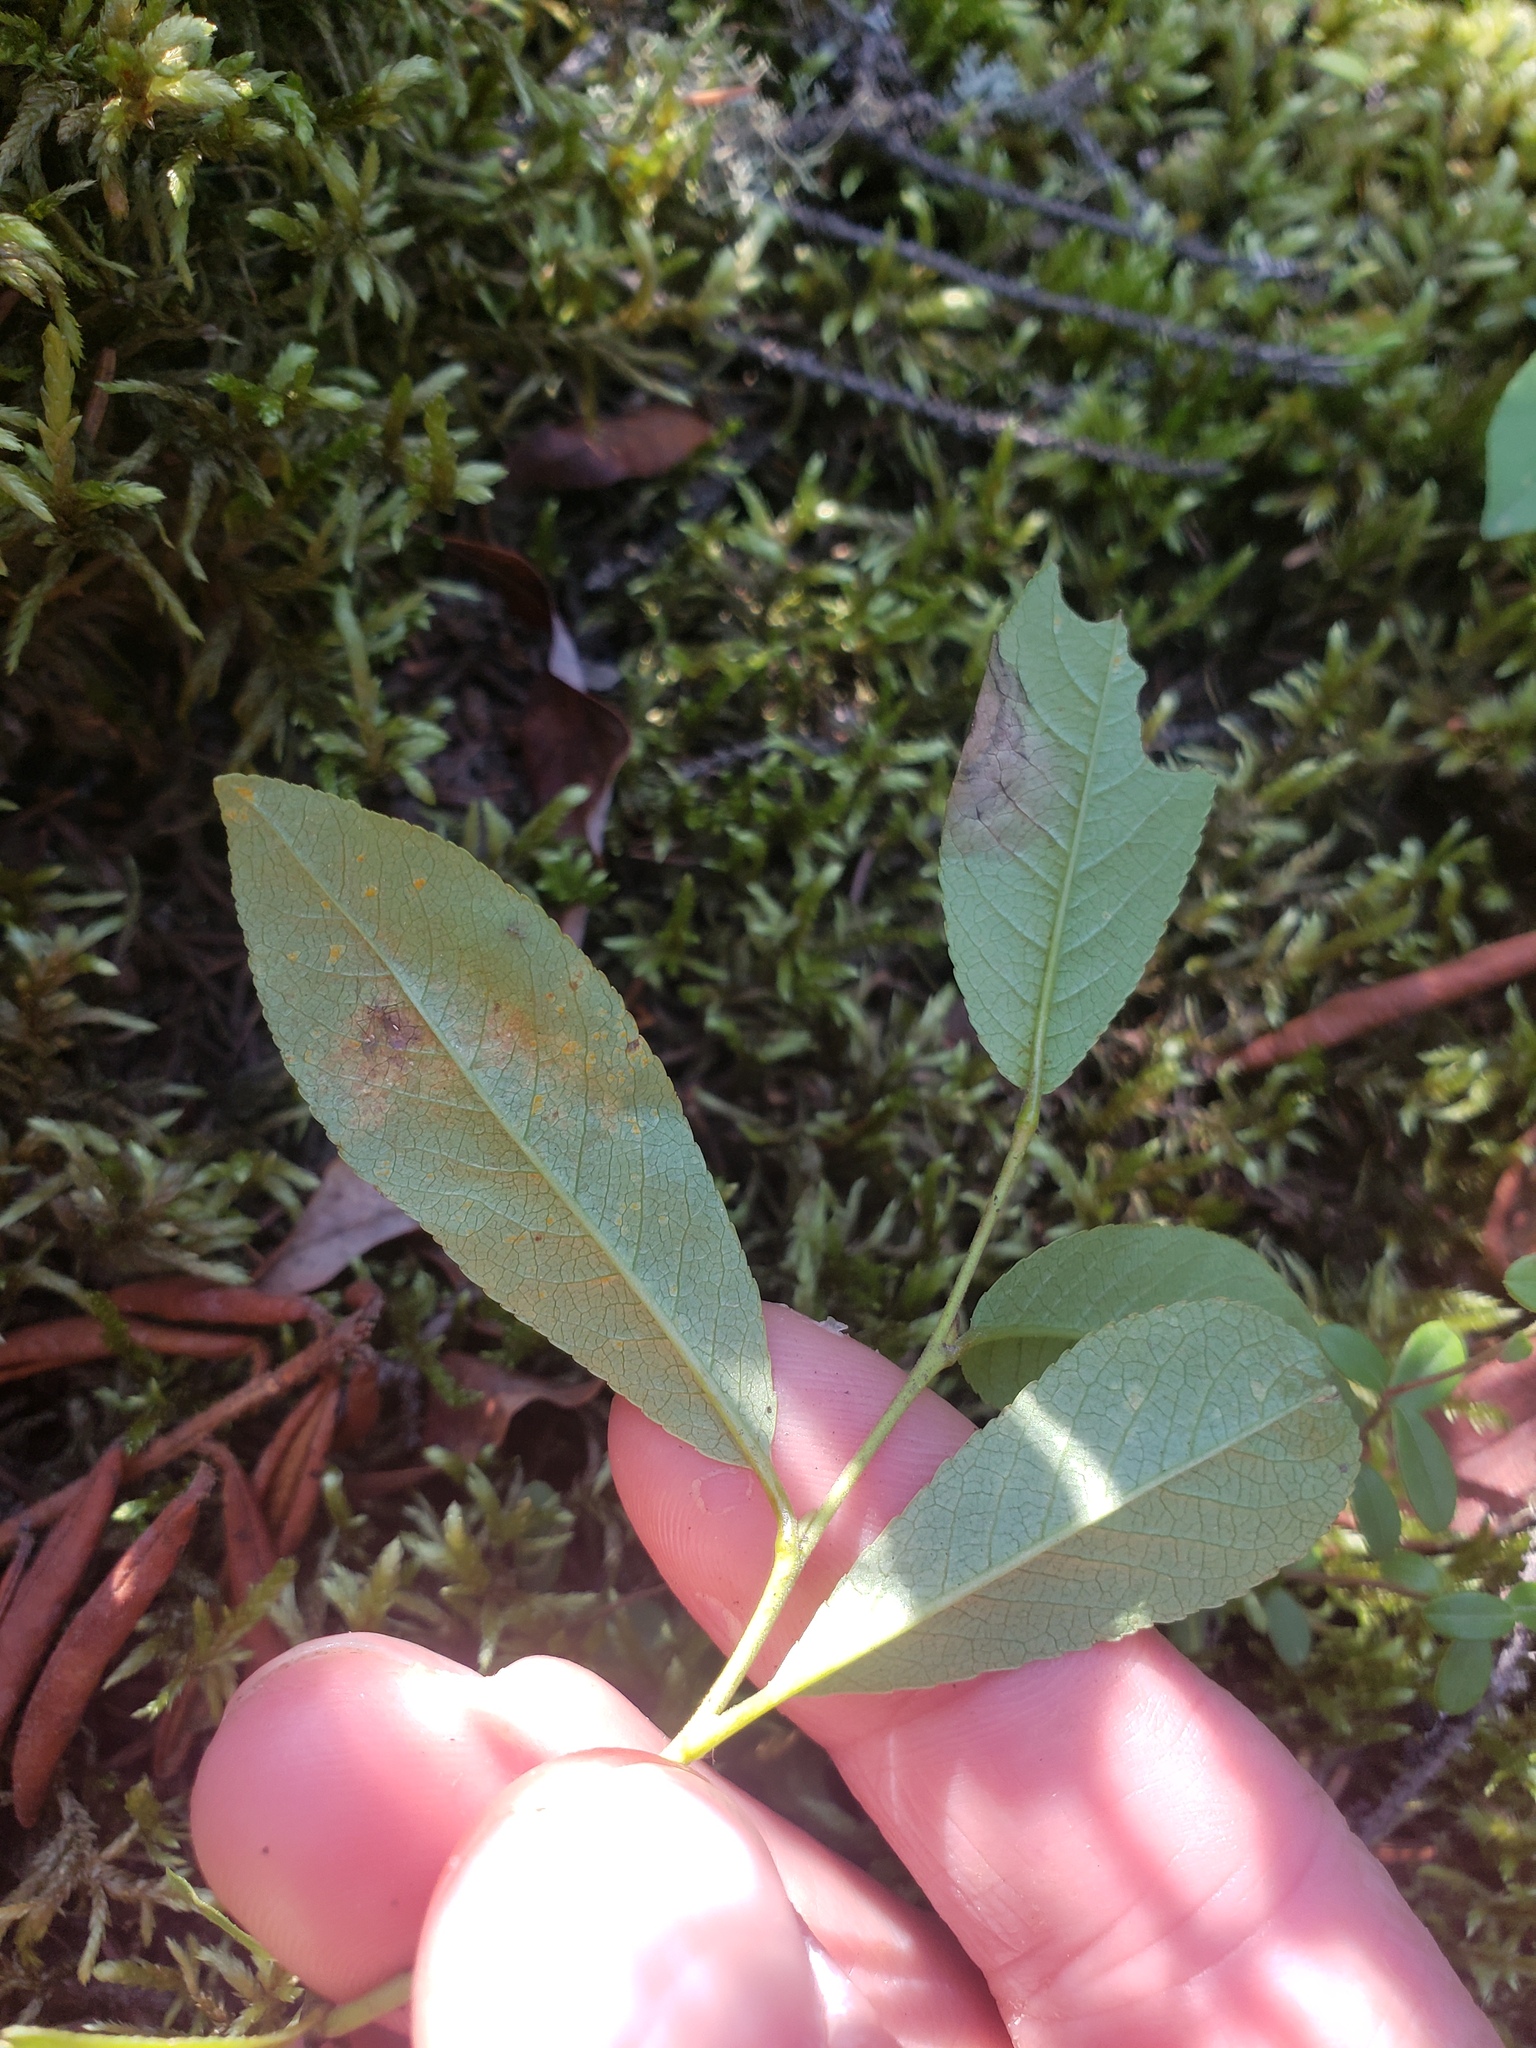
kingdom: Plantae
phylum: Tracheophyta
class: Magnoliopsida
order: Malpighiales
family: Salicaceae
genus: Salix
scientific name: Salix myrtillifolia
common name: Bilberry willow
